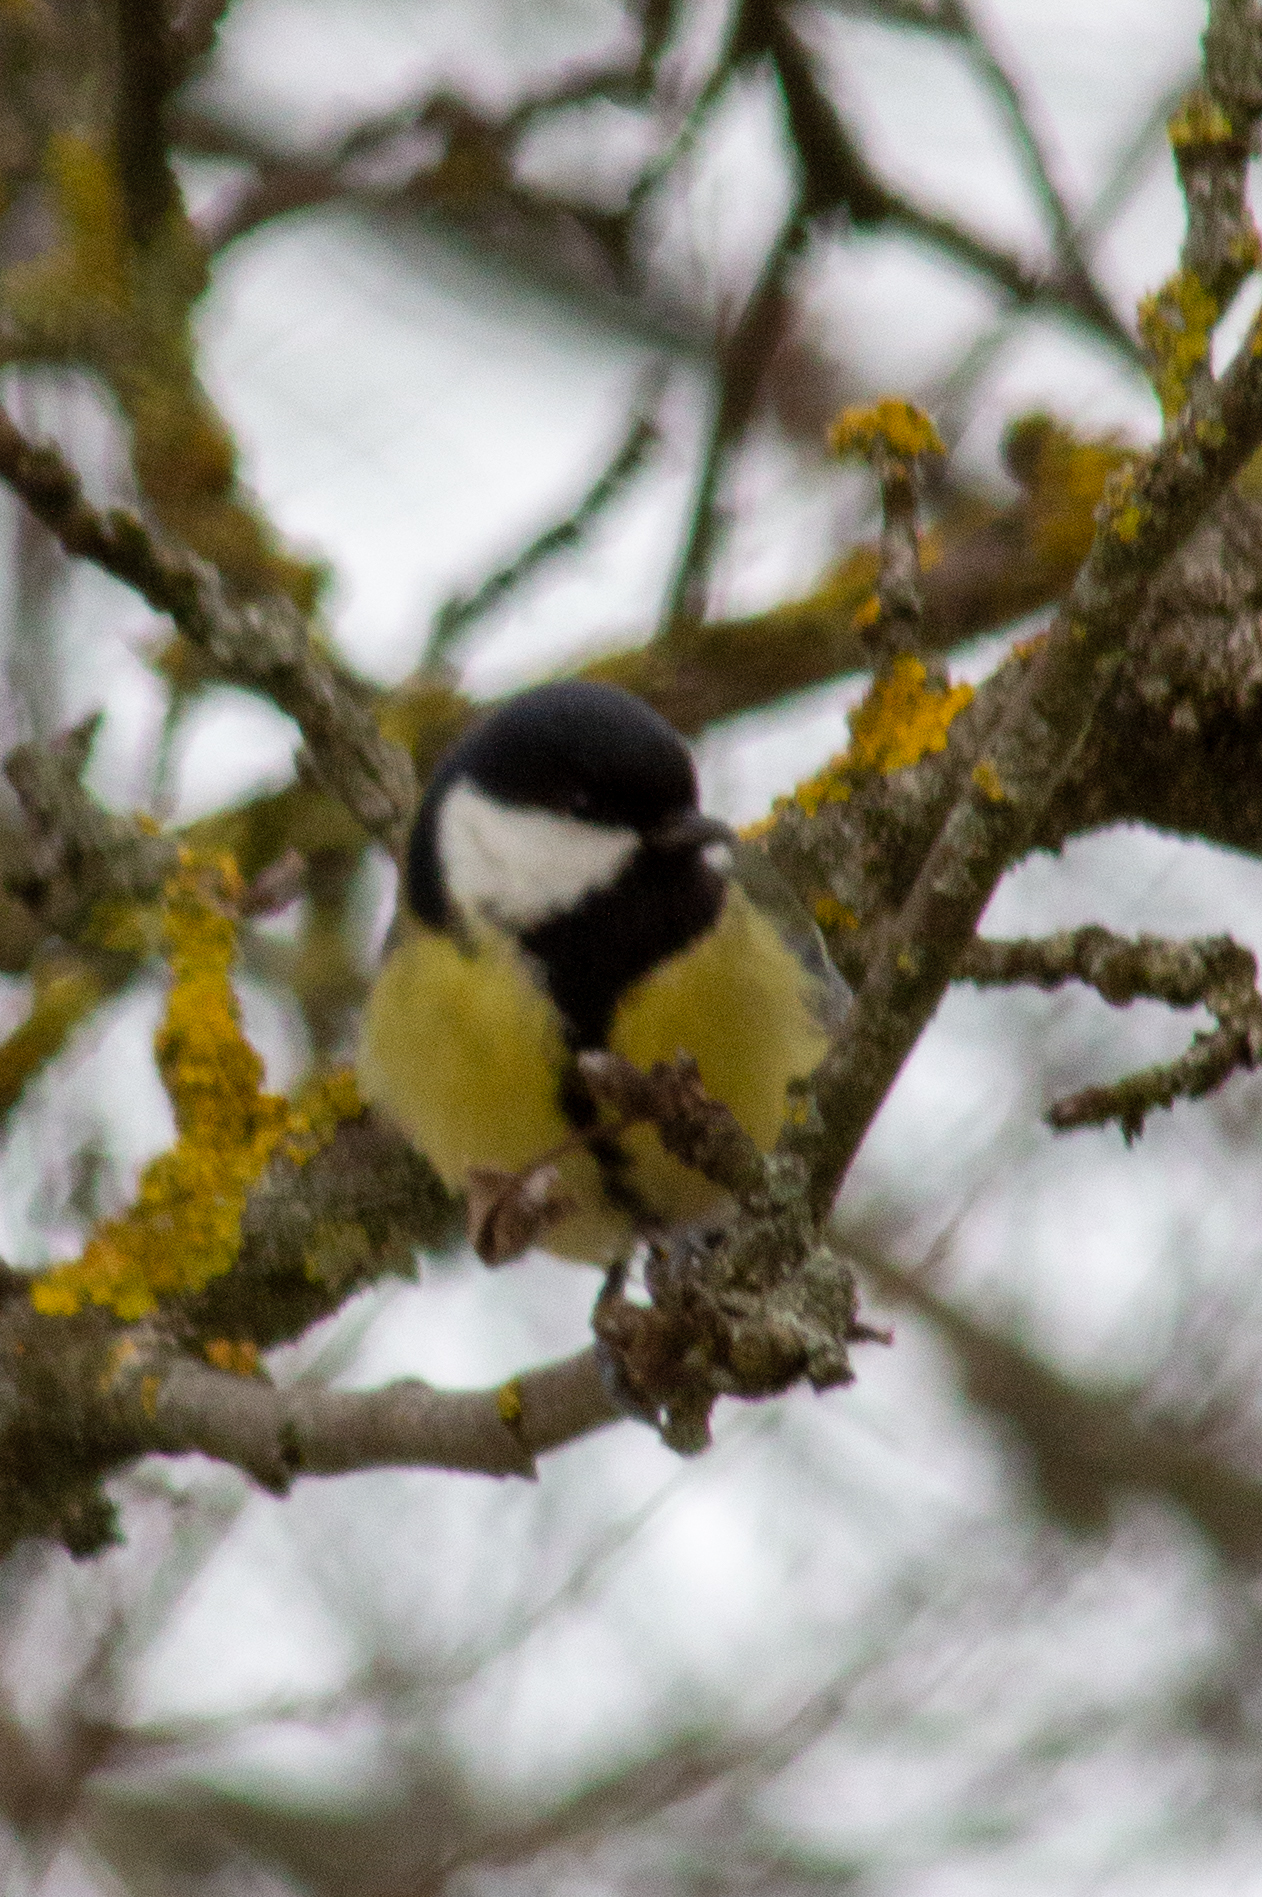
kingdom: Animalia
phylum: Chordata
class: Aves
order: Passeriformes
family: Paridae
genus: Parus
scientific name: Parus major
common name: Great tit
